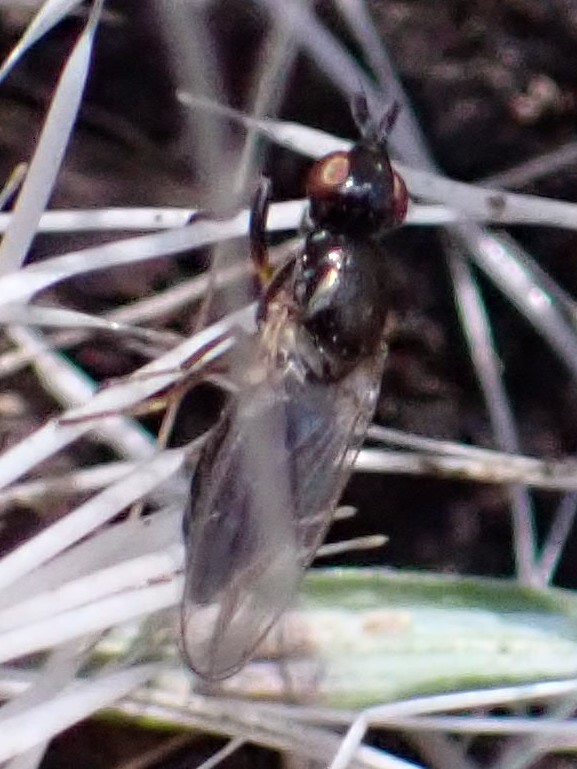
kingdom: Animalia
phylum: Arthropoda
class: Insecta
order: Diptera
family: Piophilidae
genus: Prochyliza
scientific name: Prochyliza xanthostoma
